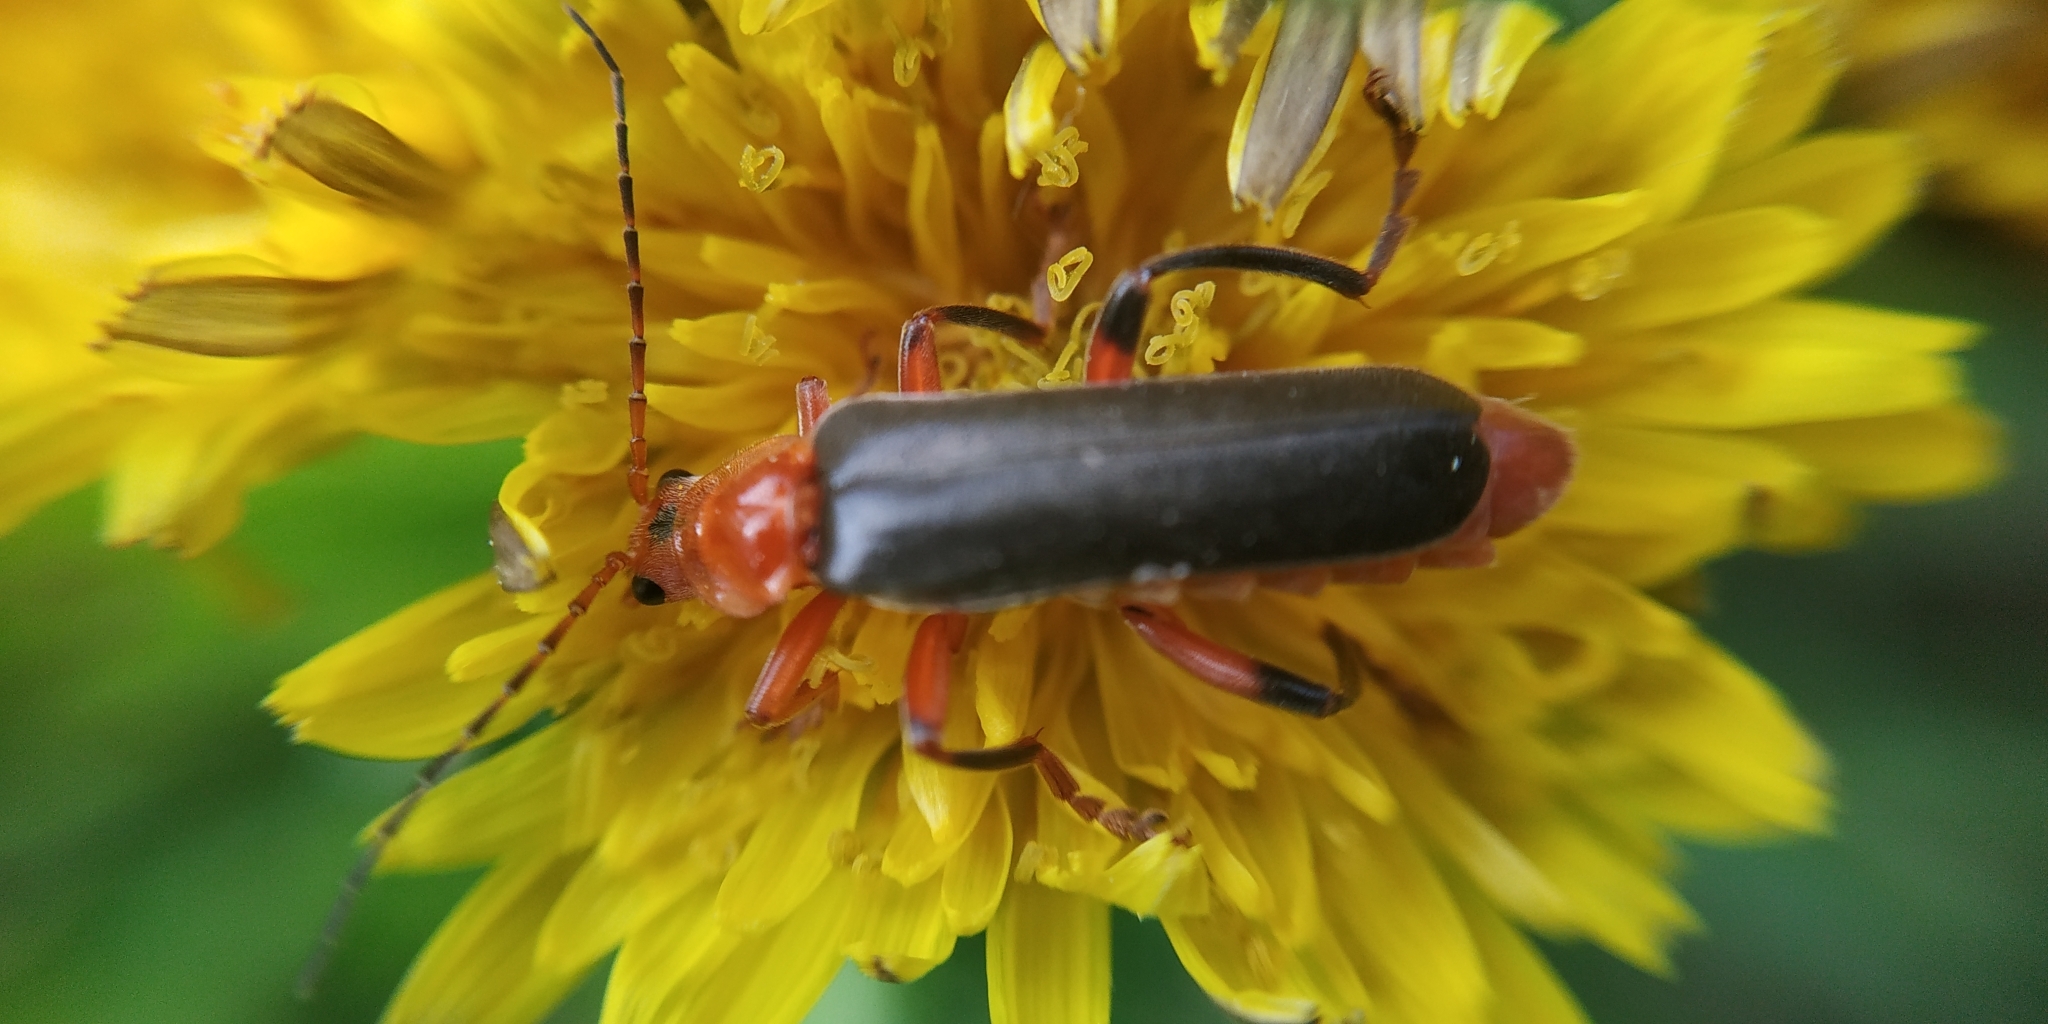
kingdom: Animalia
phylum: Arthropoda
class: Insecta
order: Coleoptera
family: Cantharidae
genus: Cantharis
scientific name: Cantharis livida
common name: Livid soldier beetle
